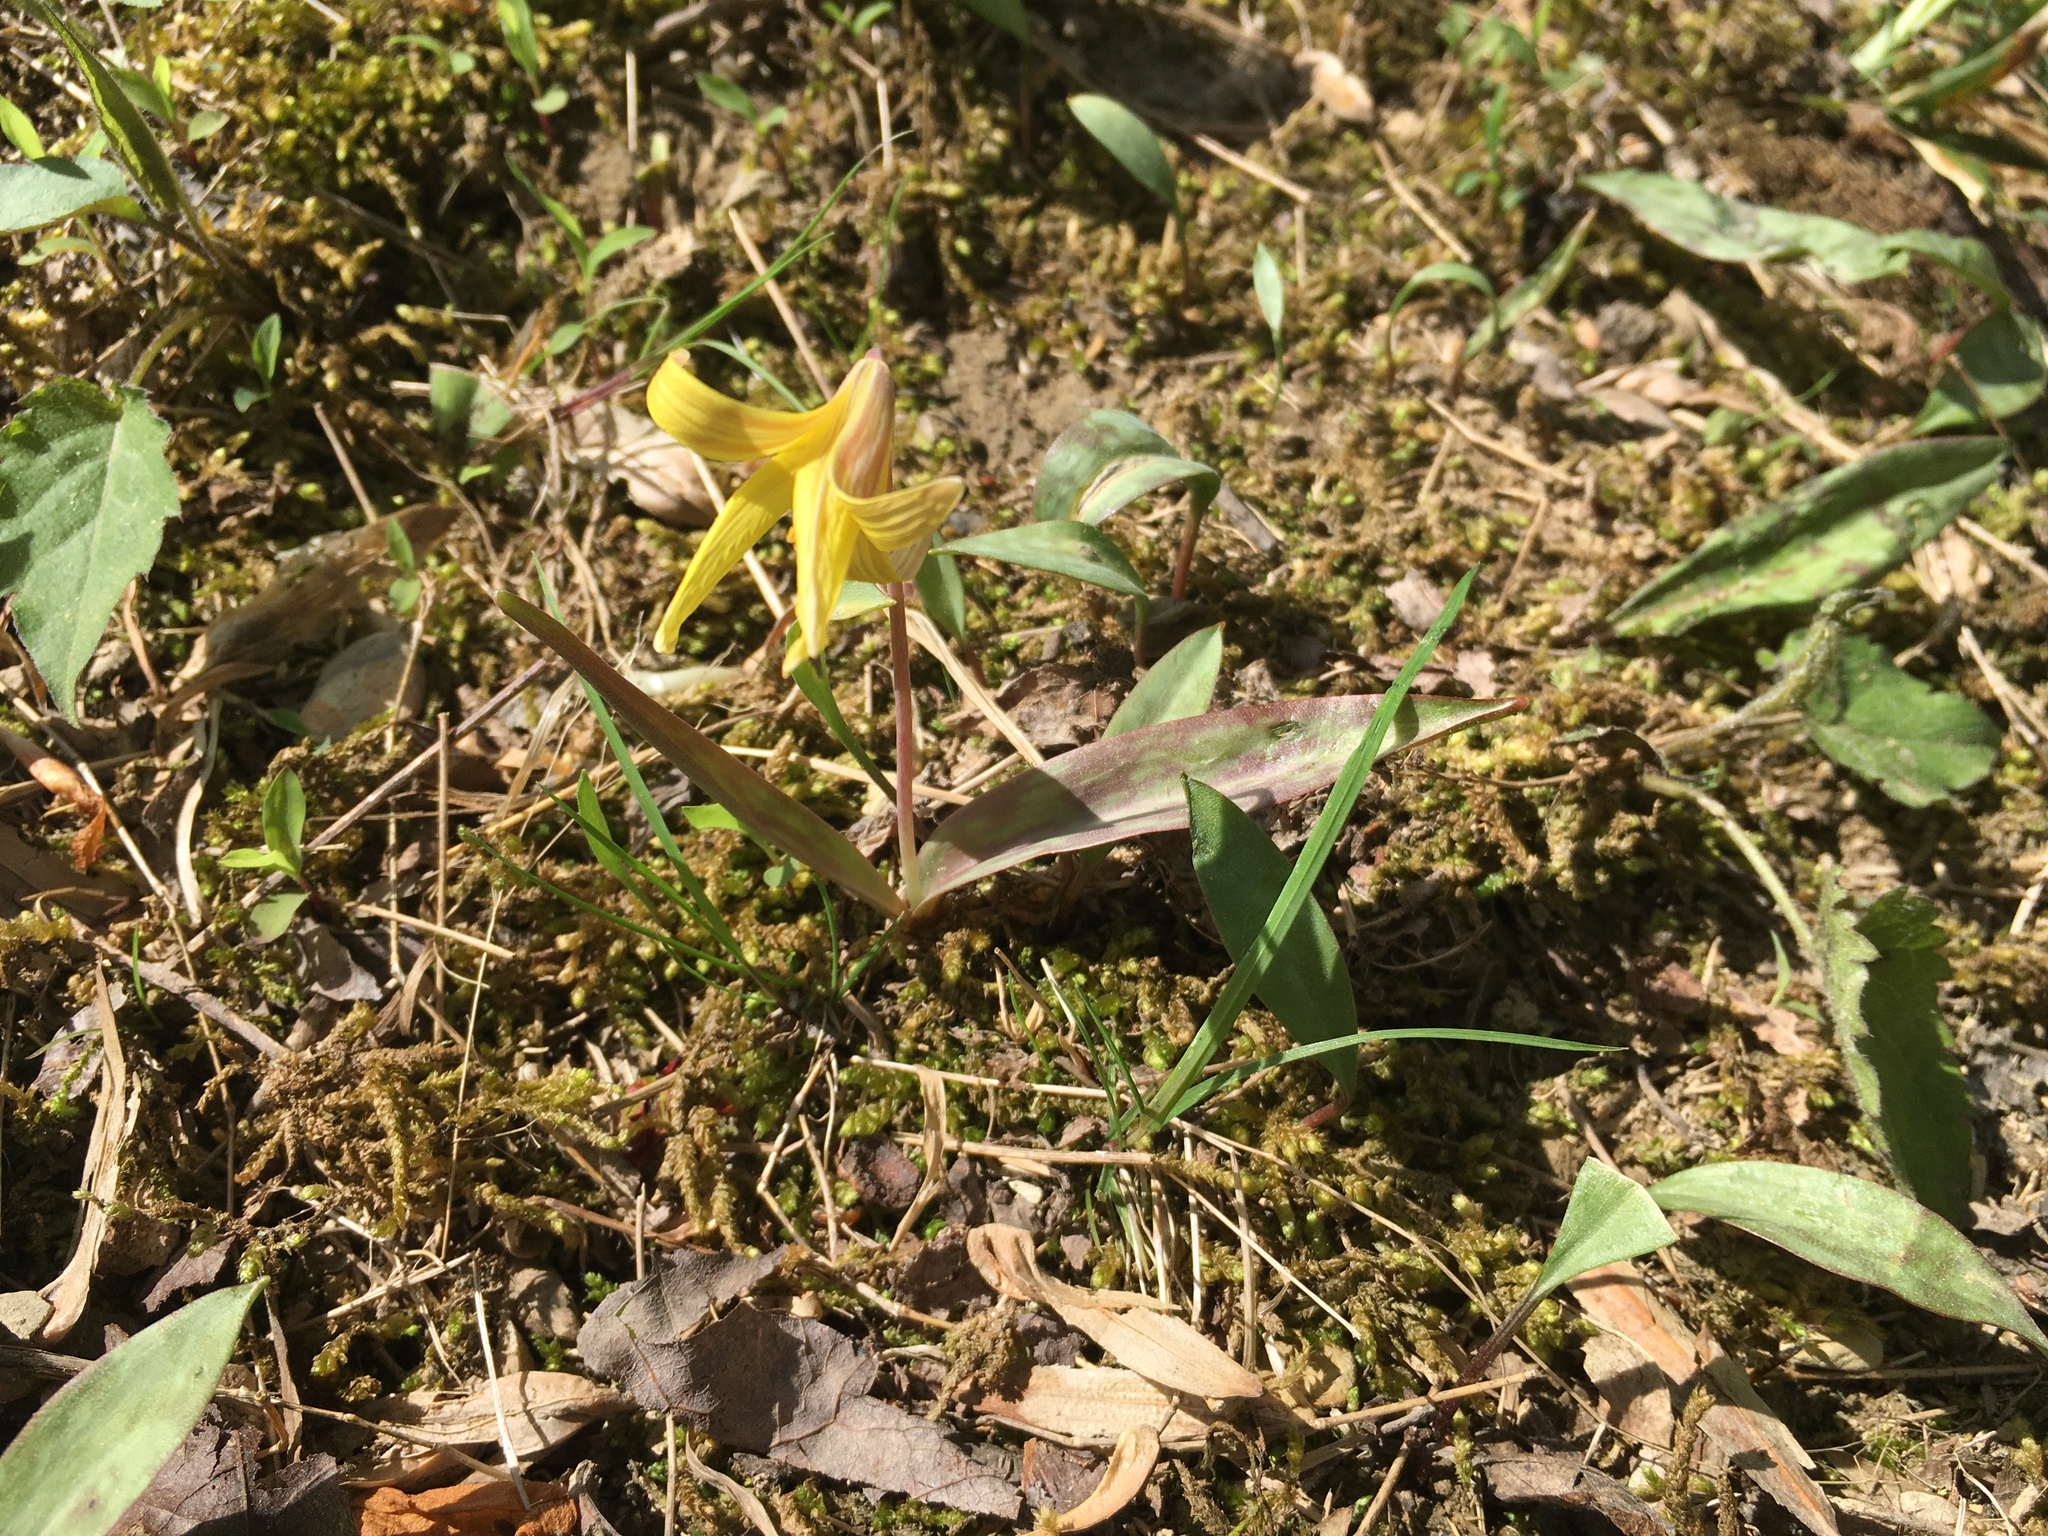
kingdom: Plantae
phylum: Tracheophyta
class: Liliopsida
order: Liliales
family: Liliaceae
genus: Erythronium
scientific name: Erythronium americanum
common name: Yellow adder's-tongue
